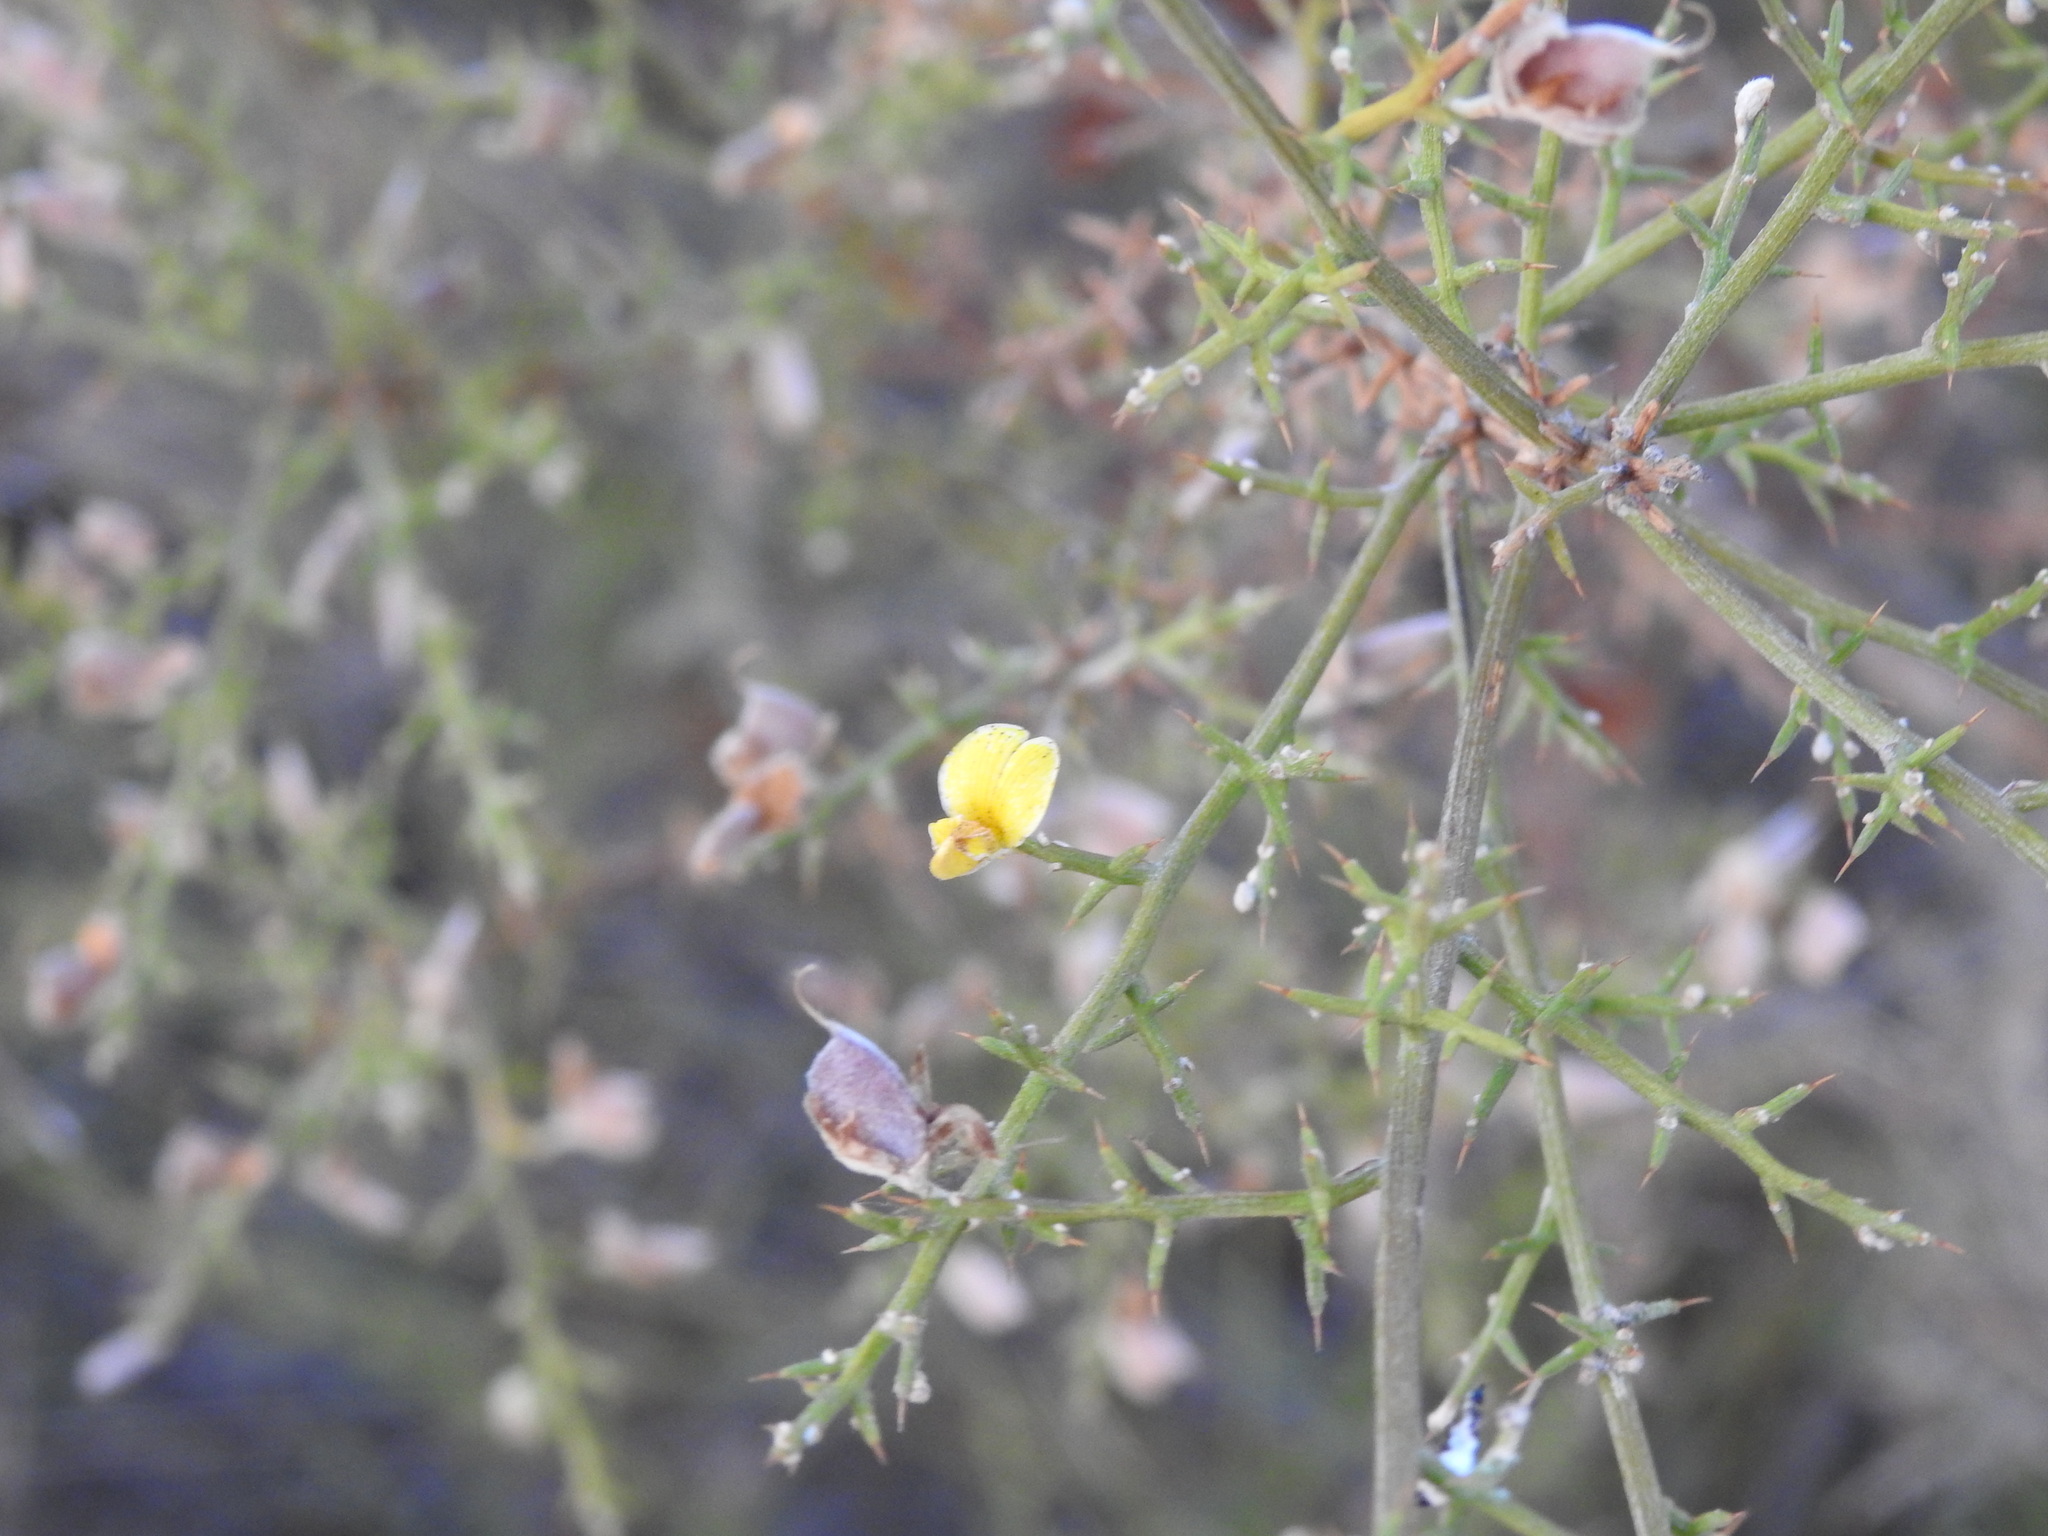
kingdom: Plantae
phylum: Tracheophyta
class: Magnoliopsida
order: Fabales
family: Fabaceae
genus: Stauracanthus
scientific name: Stauracanthus boivinii
